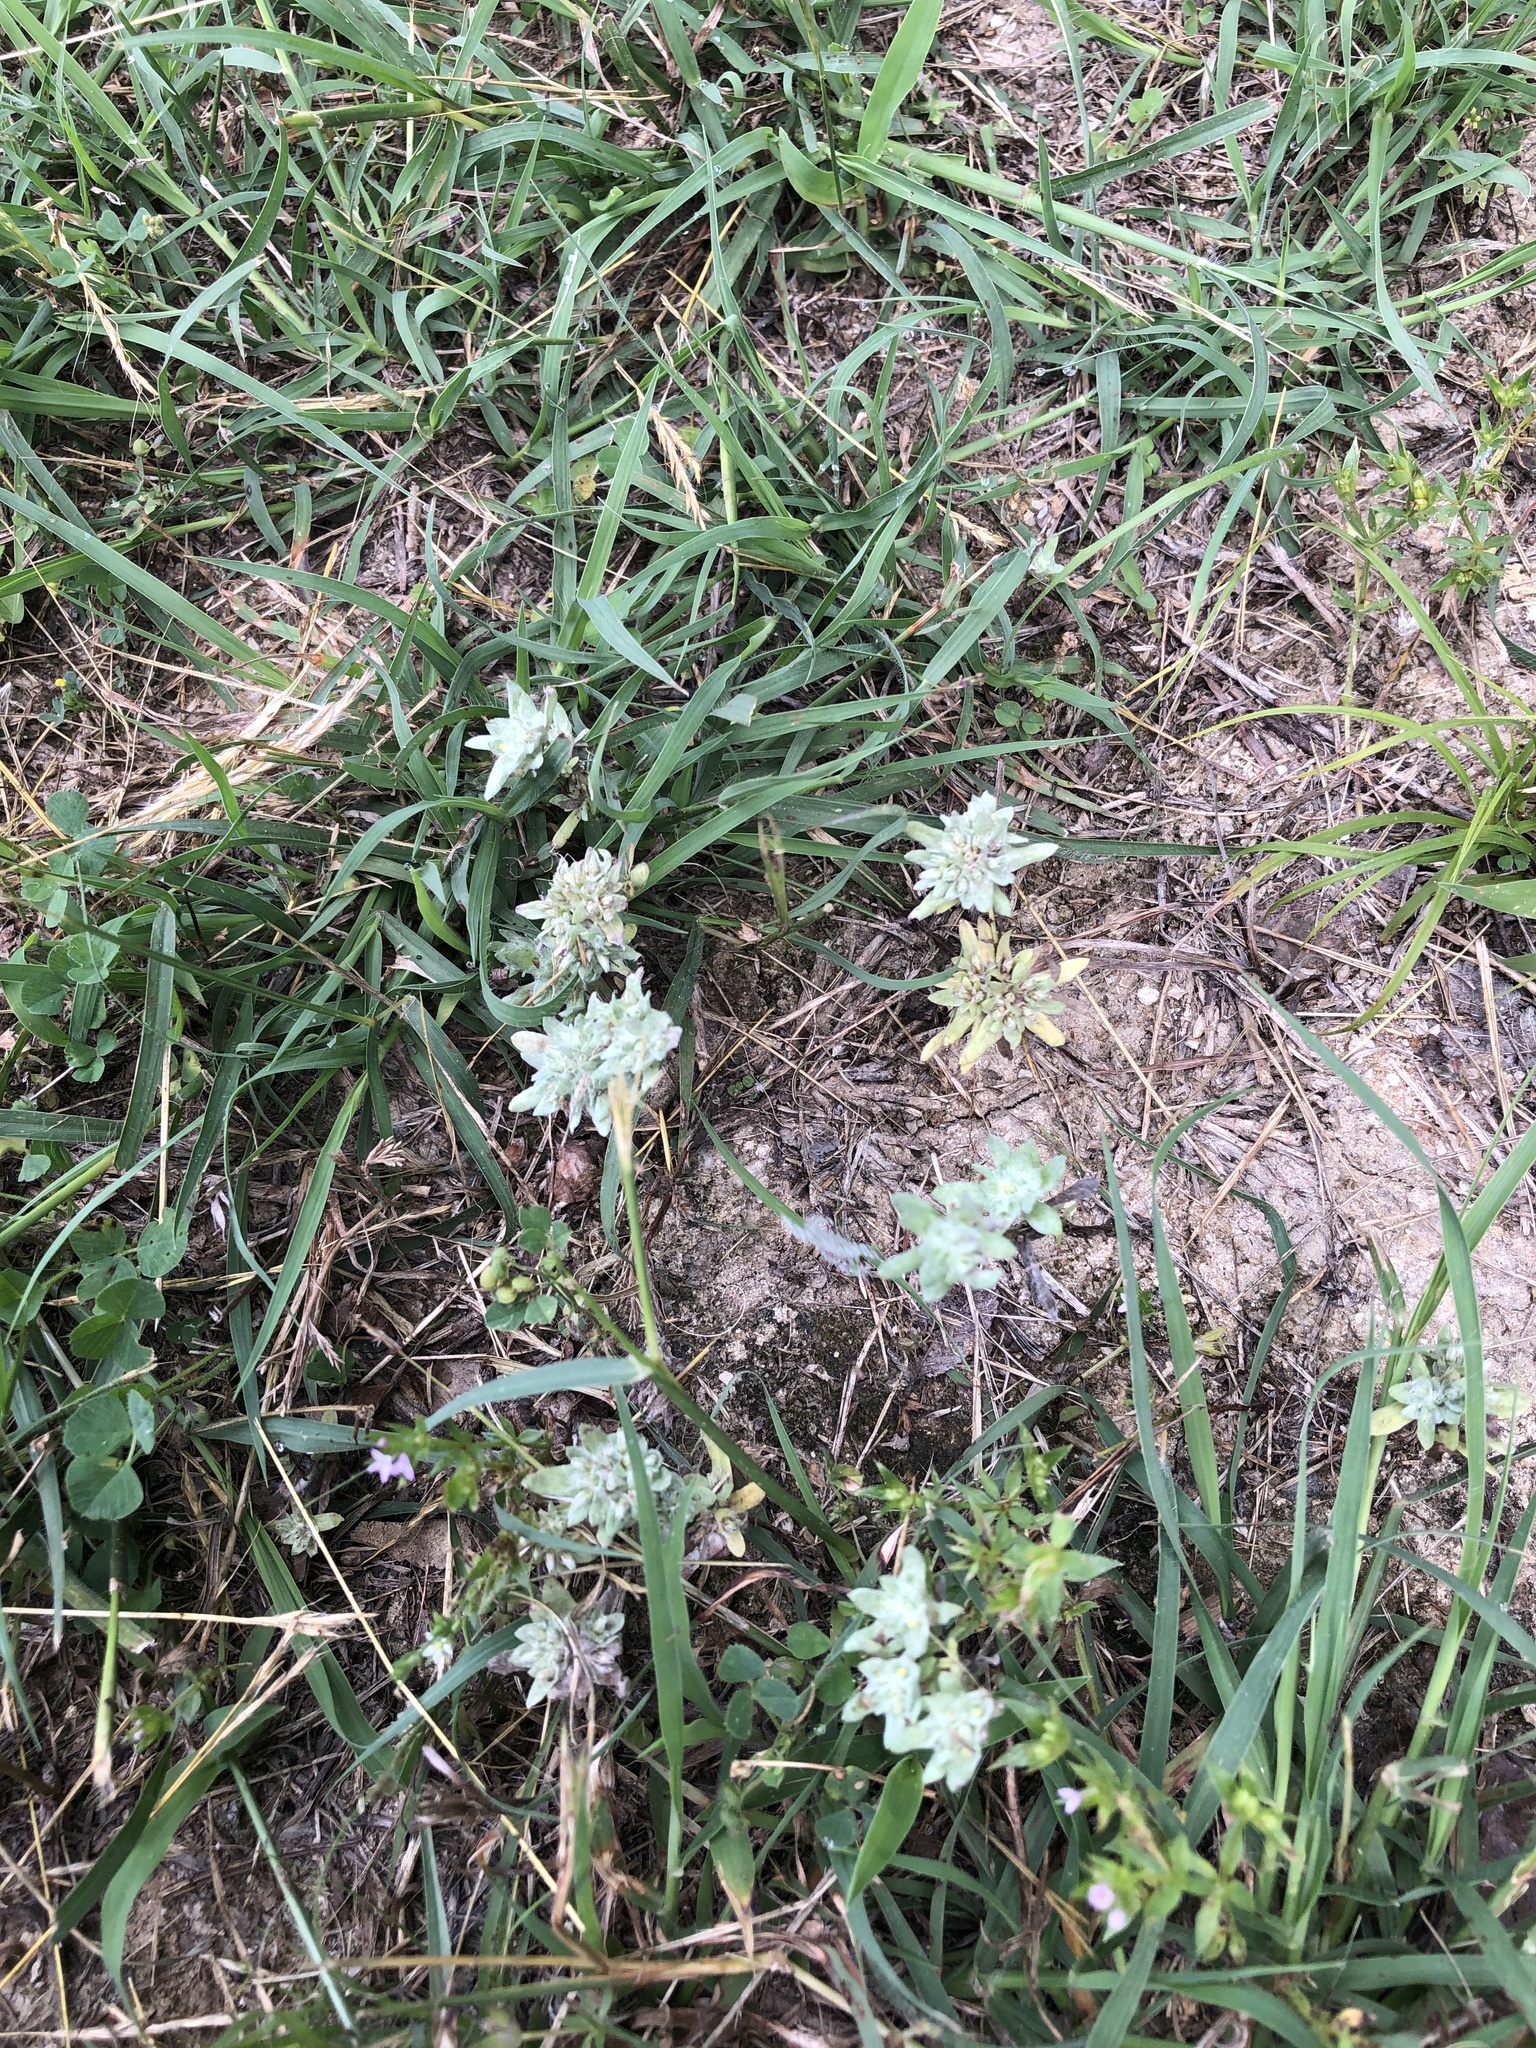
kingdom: Plantae
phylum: Tracheophyta
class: Magnoliopsida
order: Asterales
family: Asteraceae
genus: Diaperia
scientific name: Diaperia prolifera
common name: Big-head rabbit-tobacco
